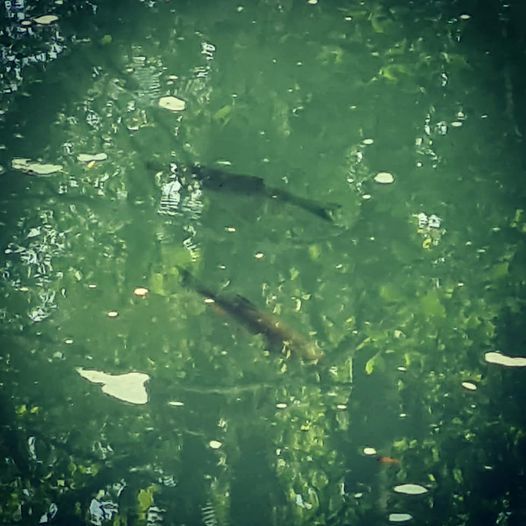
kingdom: Animalia
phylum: Chordata
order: Cypriniformes
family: Cyprinidae
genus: Squalius
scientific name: Squalius cephalus
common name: Chub
